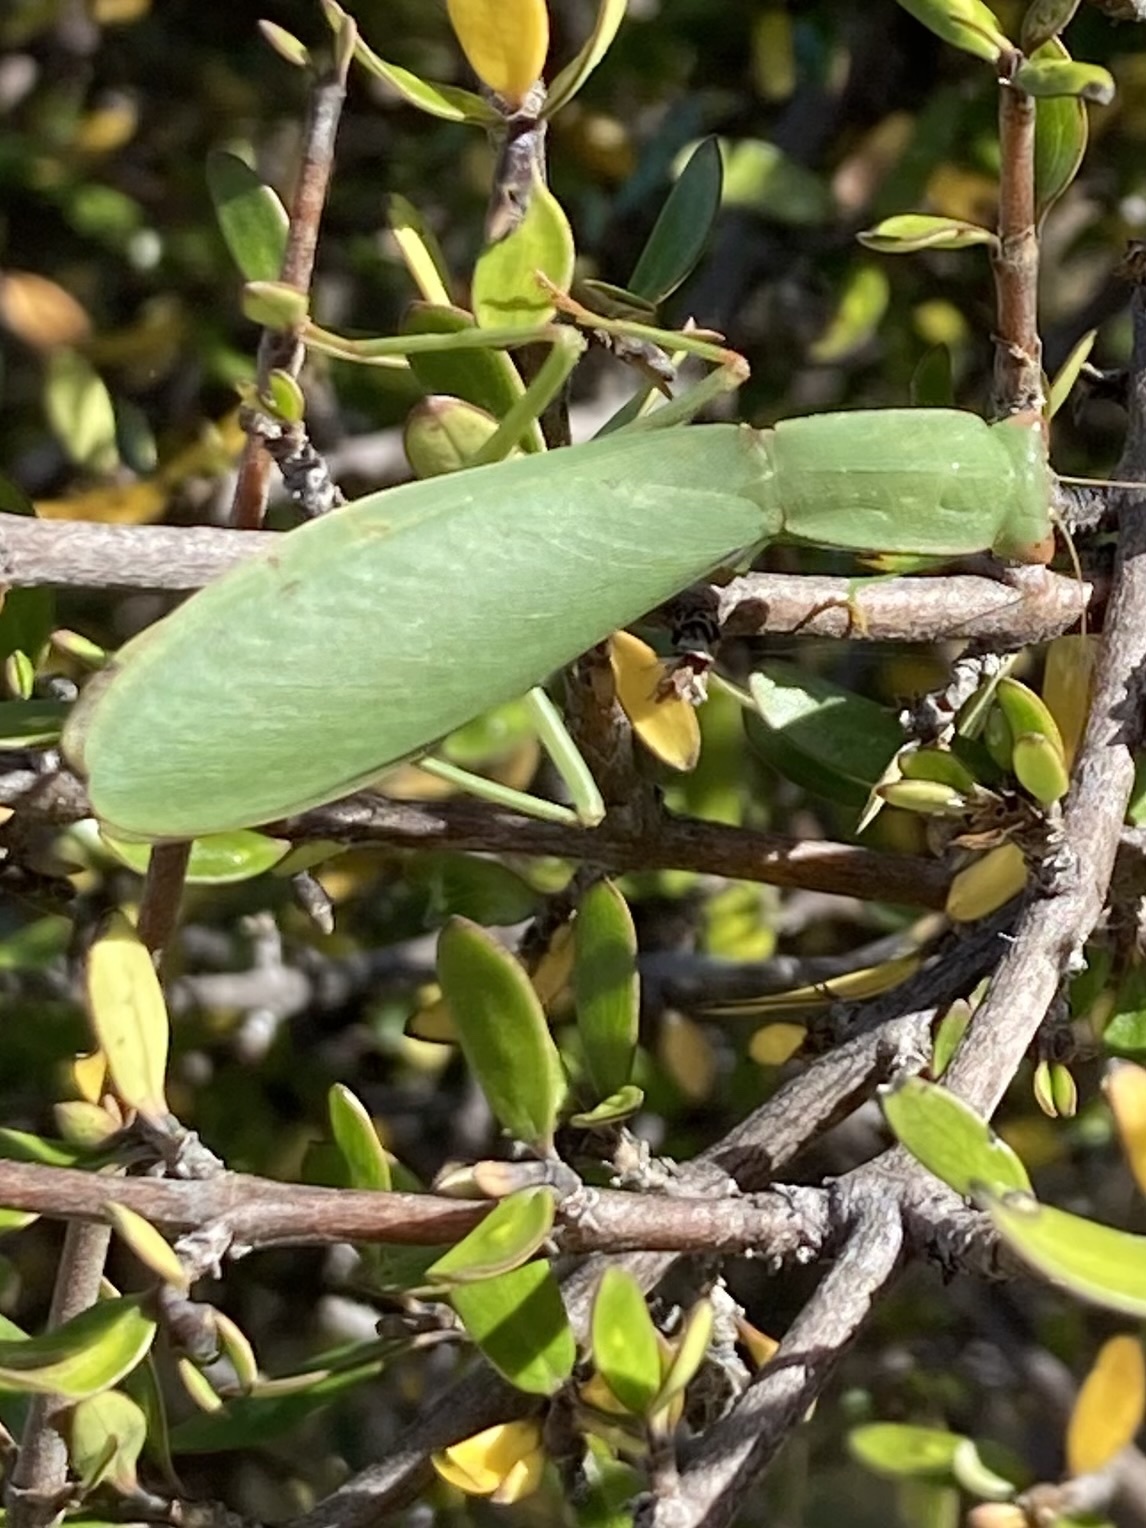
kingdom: Animalia
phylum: Arthropoda
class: Insecta
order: Mantodea
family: Mantidae
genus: Orthodera
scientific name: Orthodera novaezealandiae
